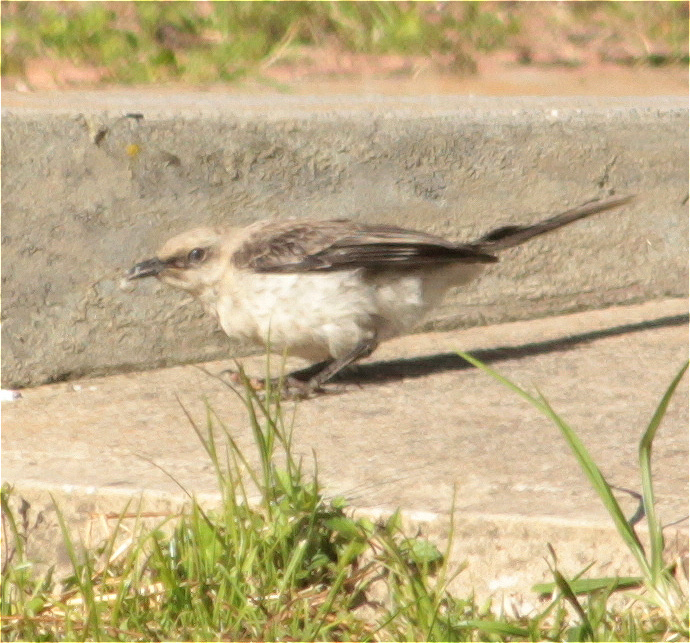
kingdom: Animalia
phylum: Chordata
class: Aves
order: Passeriformes
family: Mimidae
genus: Mimus
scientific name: Mimus gilvus
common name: Tropical mockingbird
